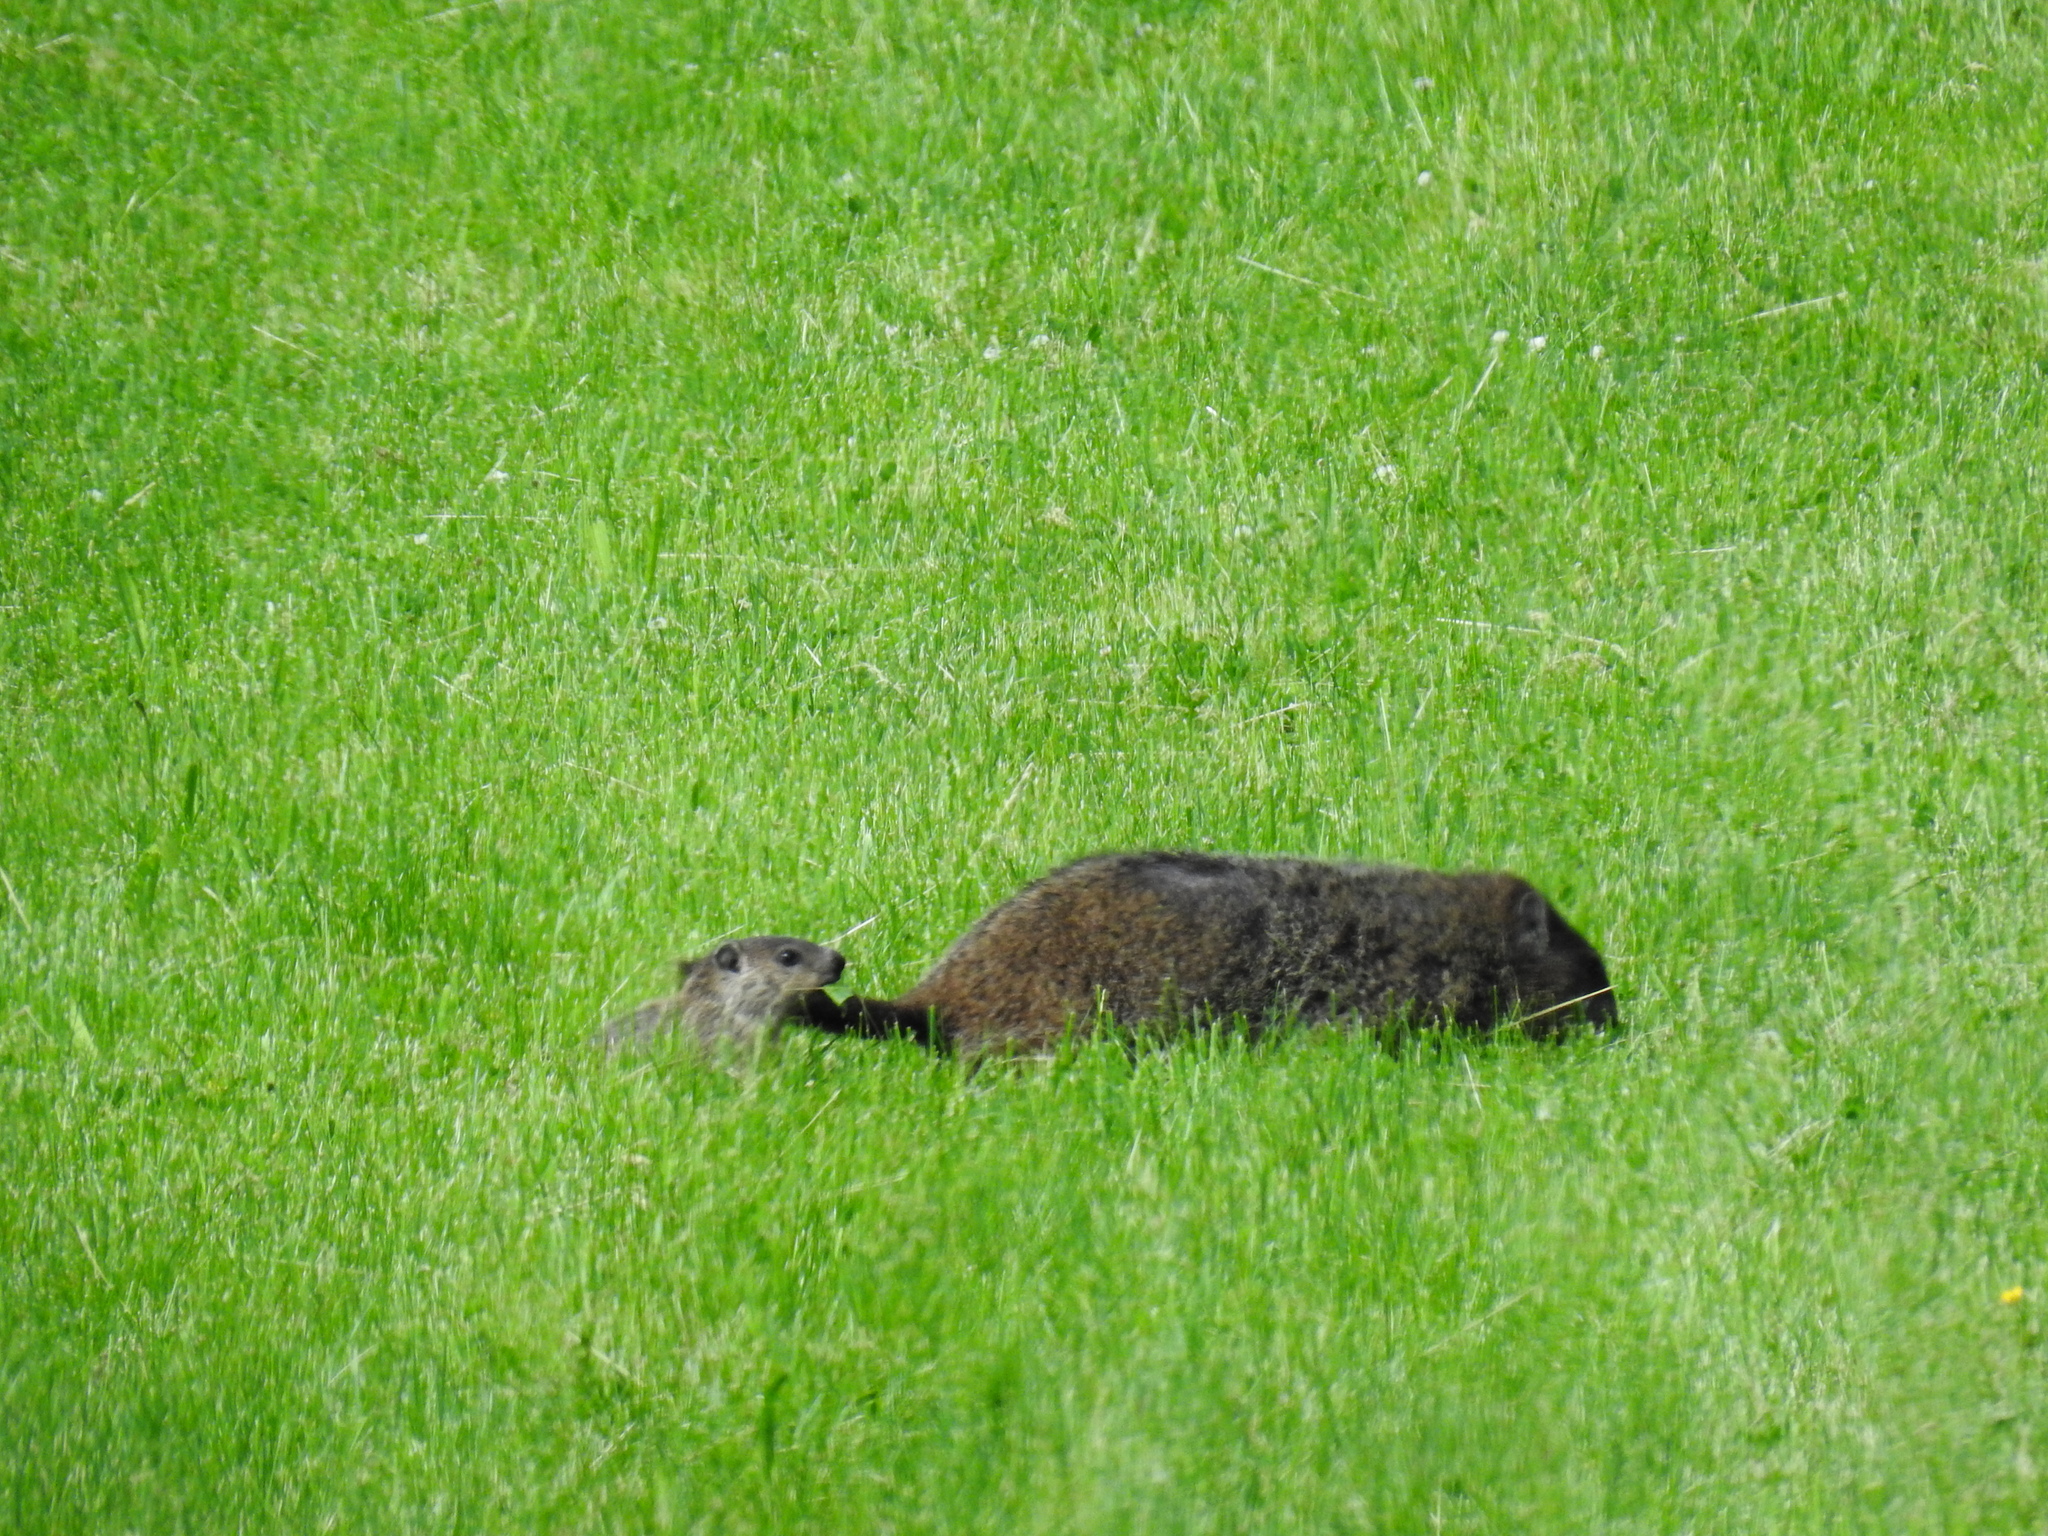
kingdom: Animalia
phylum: Chordata
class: Mammalia
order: Rodentia
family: Sciuridae
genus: Marmota
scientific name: Marmota monax
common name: Groundhog
